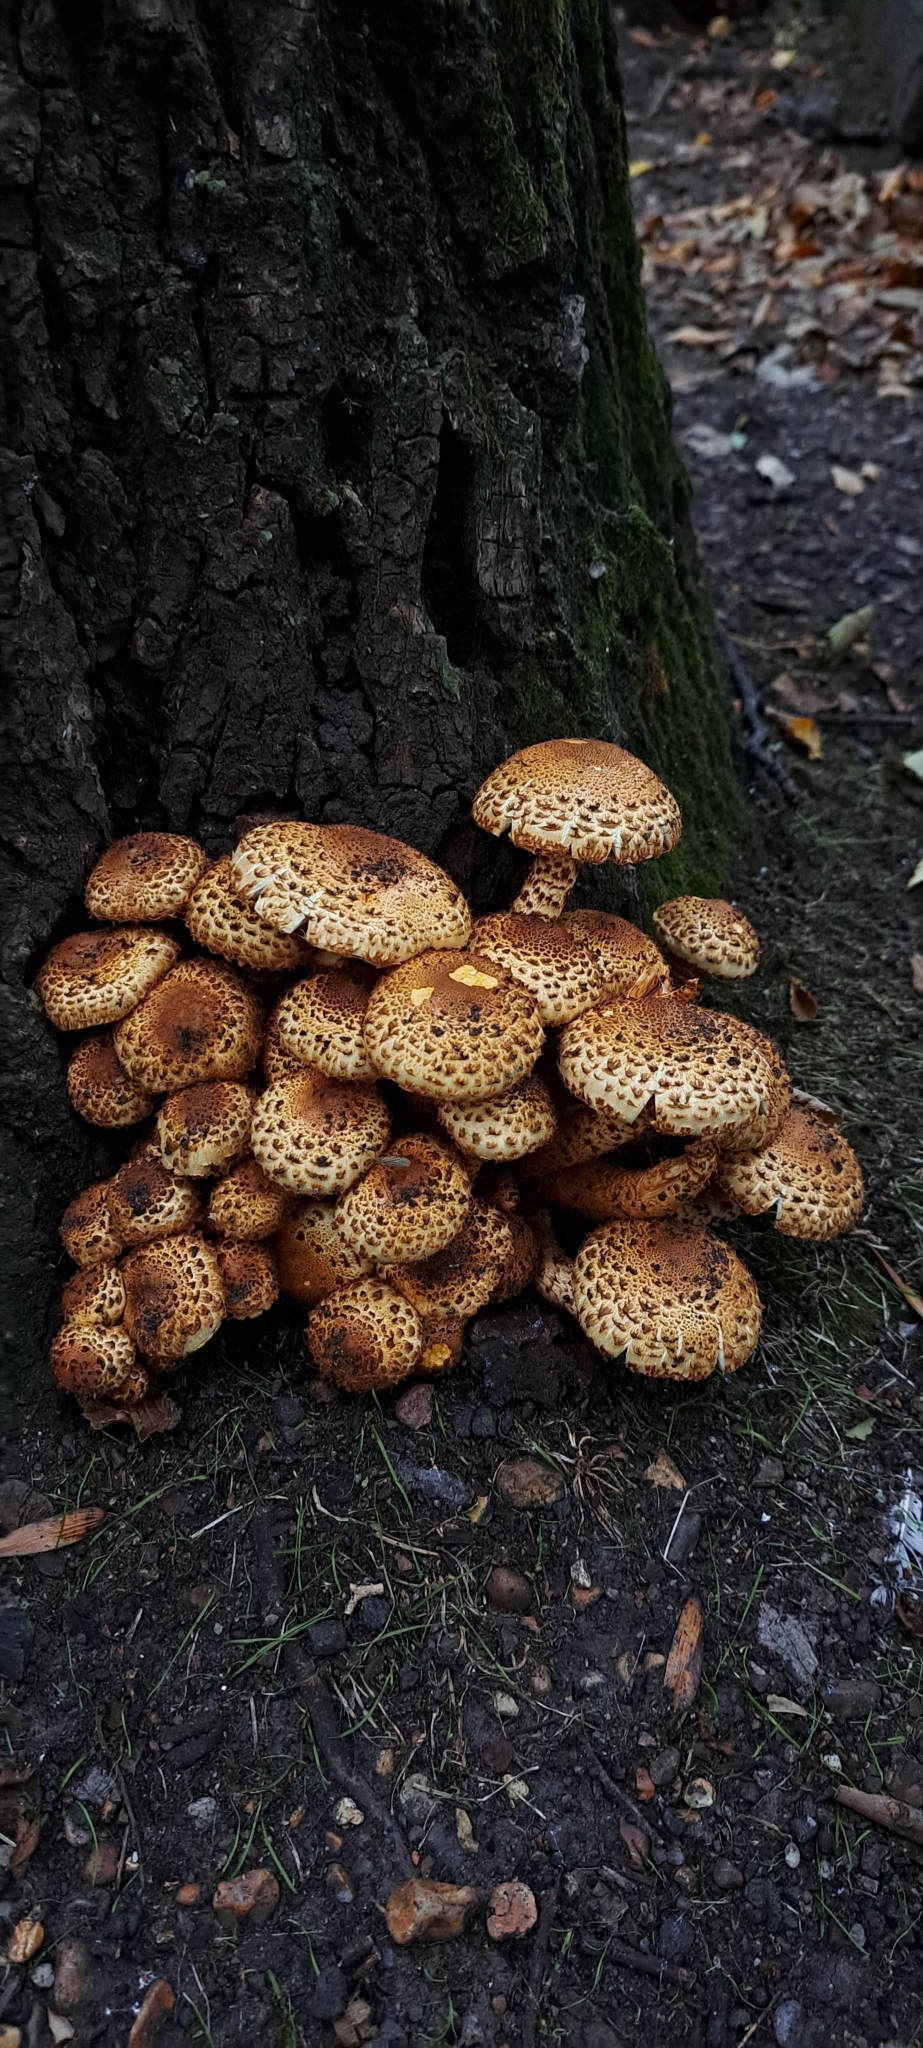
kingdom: Fungi
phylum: Basidiomycota
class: Agaricomycetes
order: Agaricales
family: Strophariaceae
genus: Pholiota
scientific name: Pholiota squarrosa
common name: Shaggy pholiota
